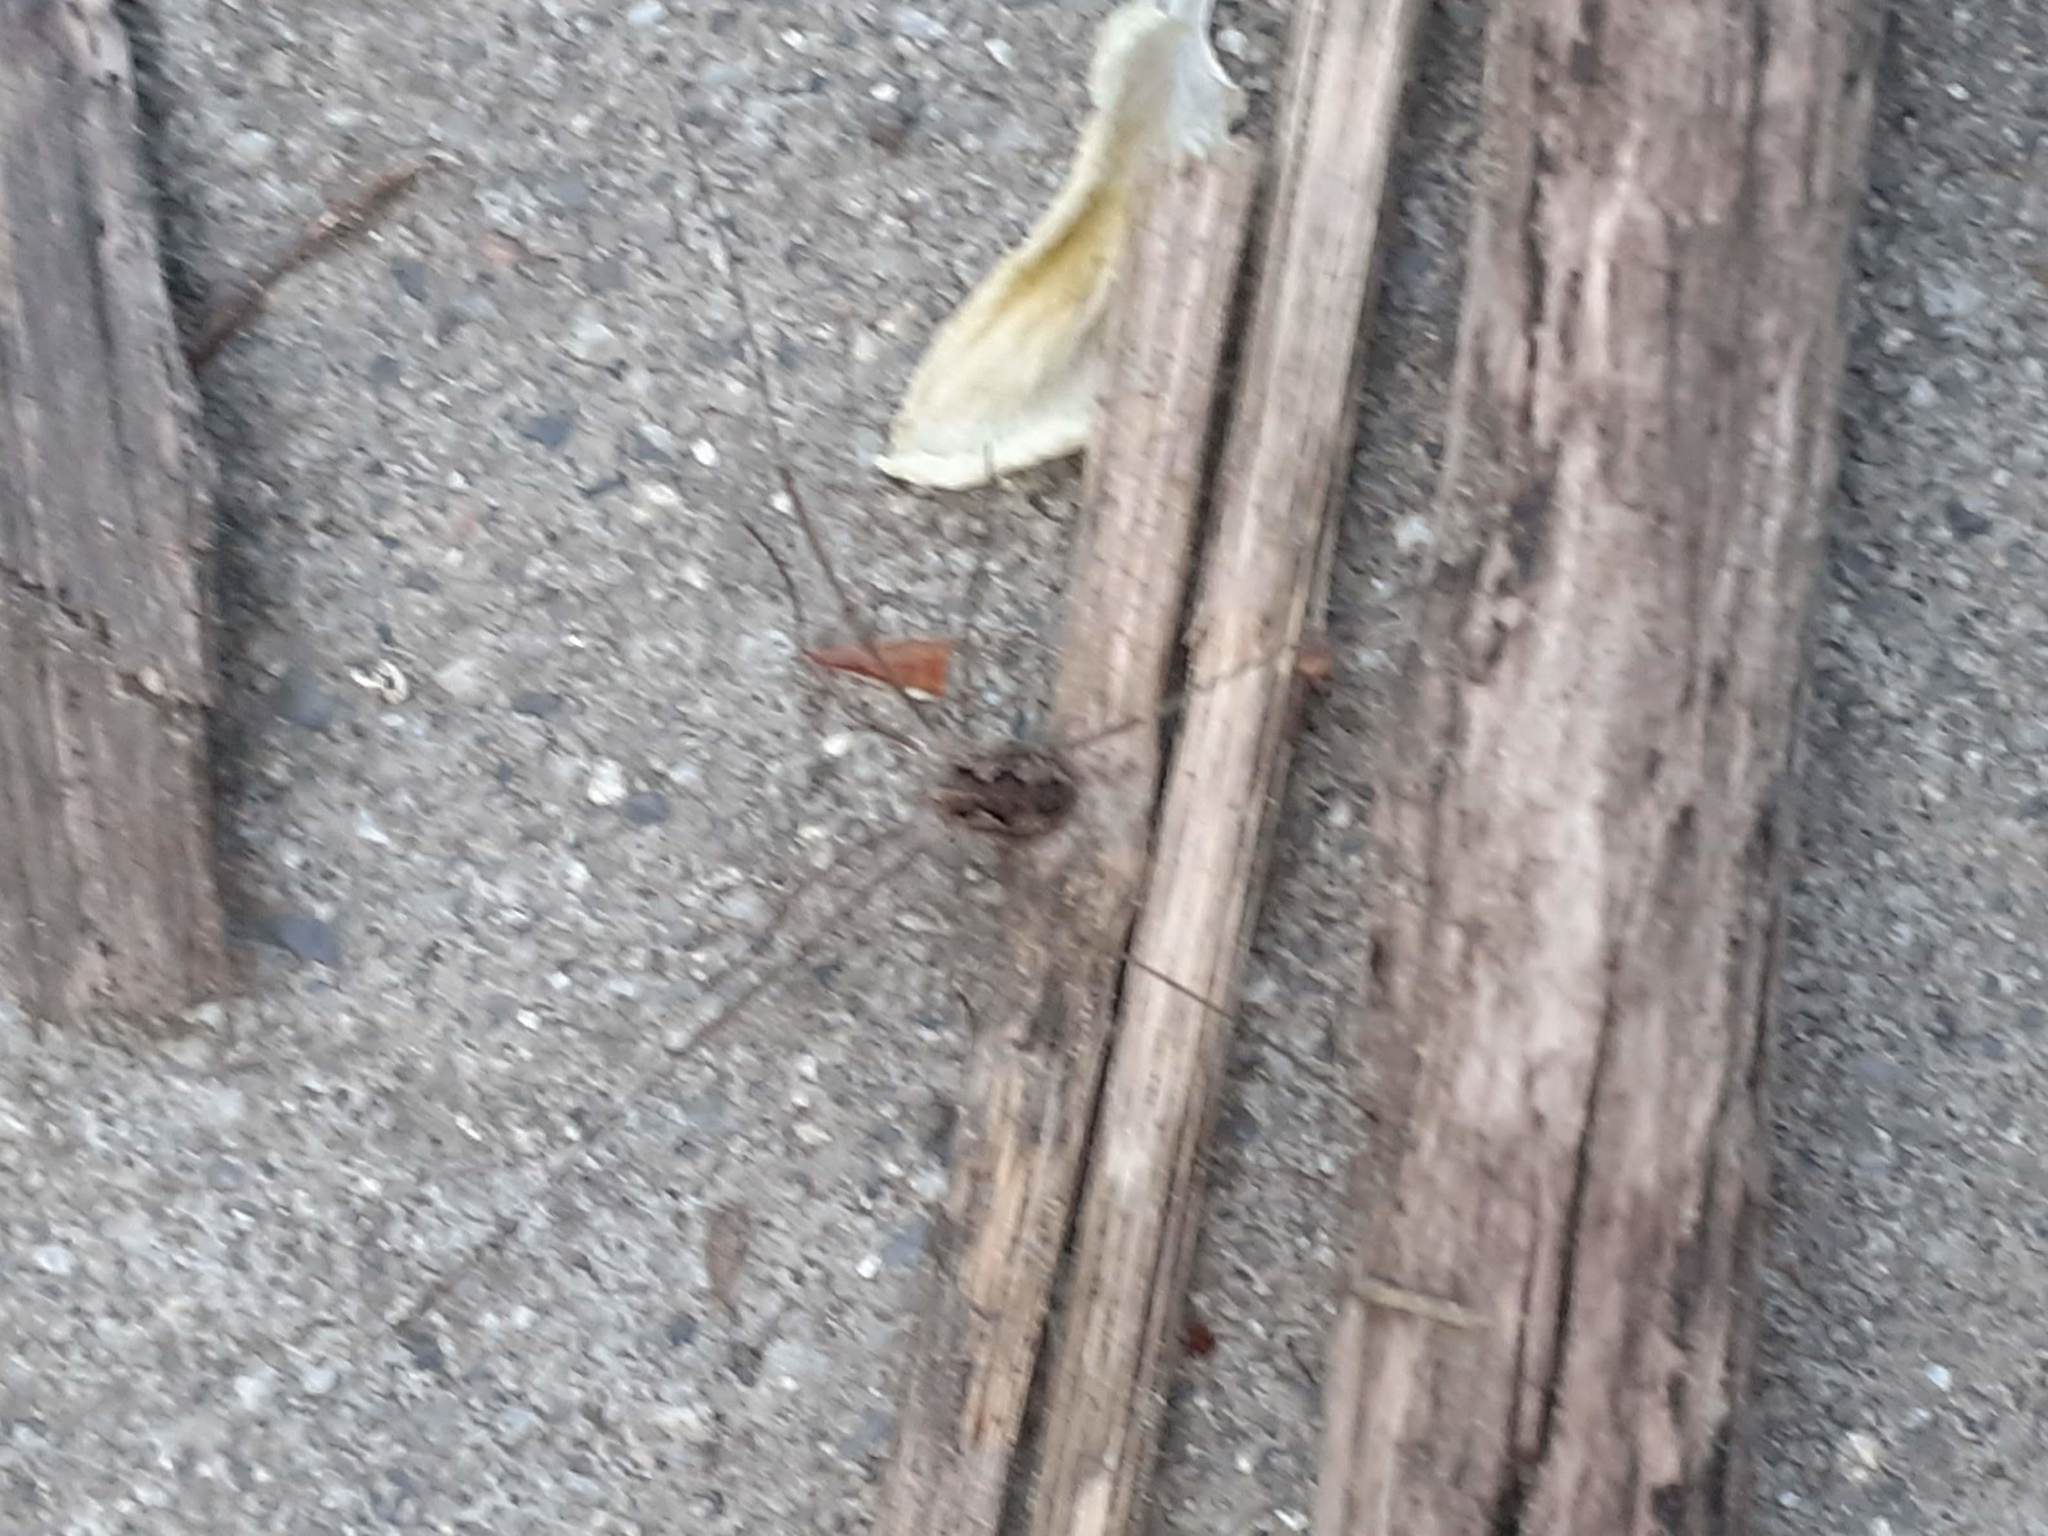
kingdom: Animalia
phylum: Arthropoda
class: Arachnida
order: Opiliones
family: Phalangiidae
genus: Phalangium
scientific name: Phalangium opilio
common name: Daddy longleg
